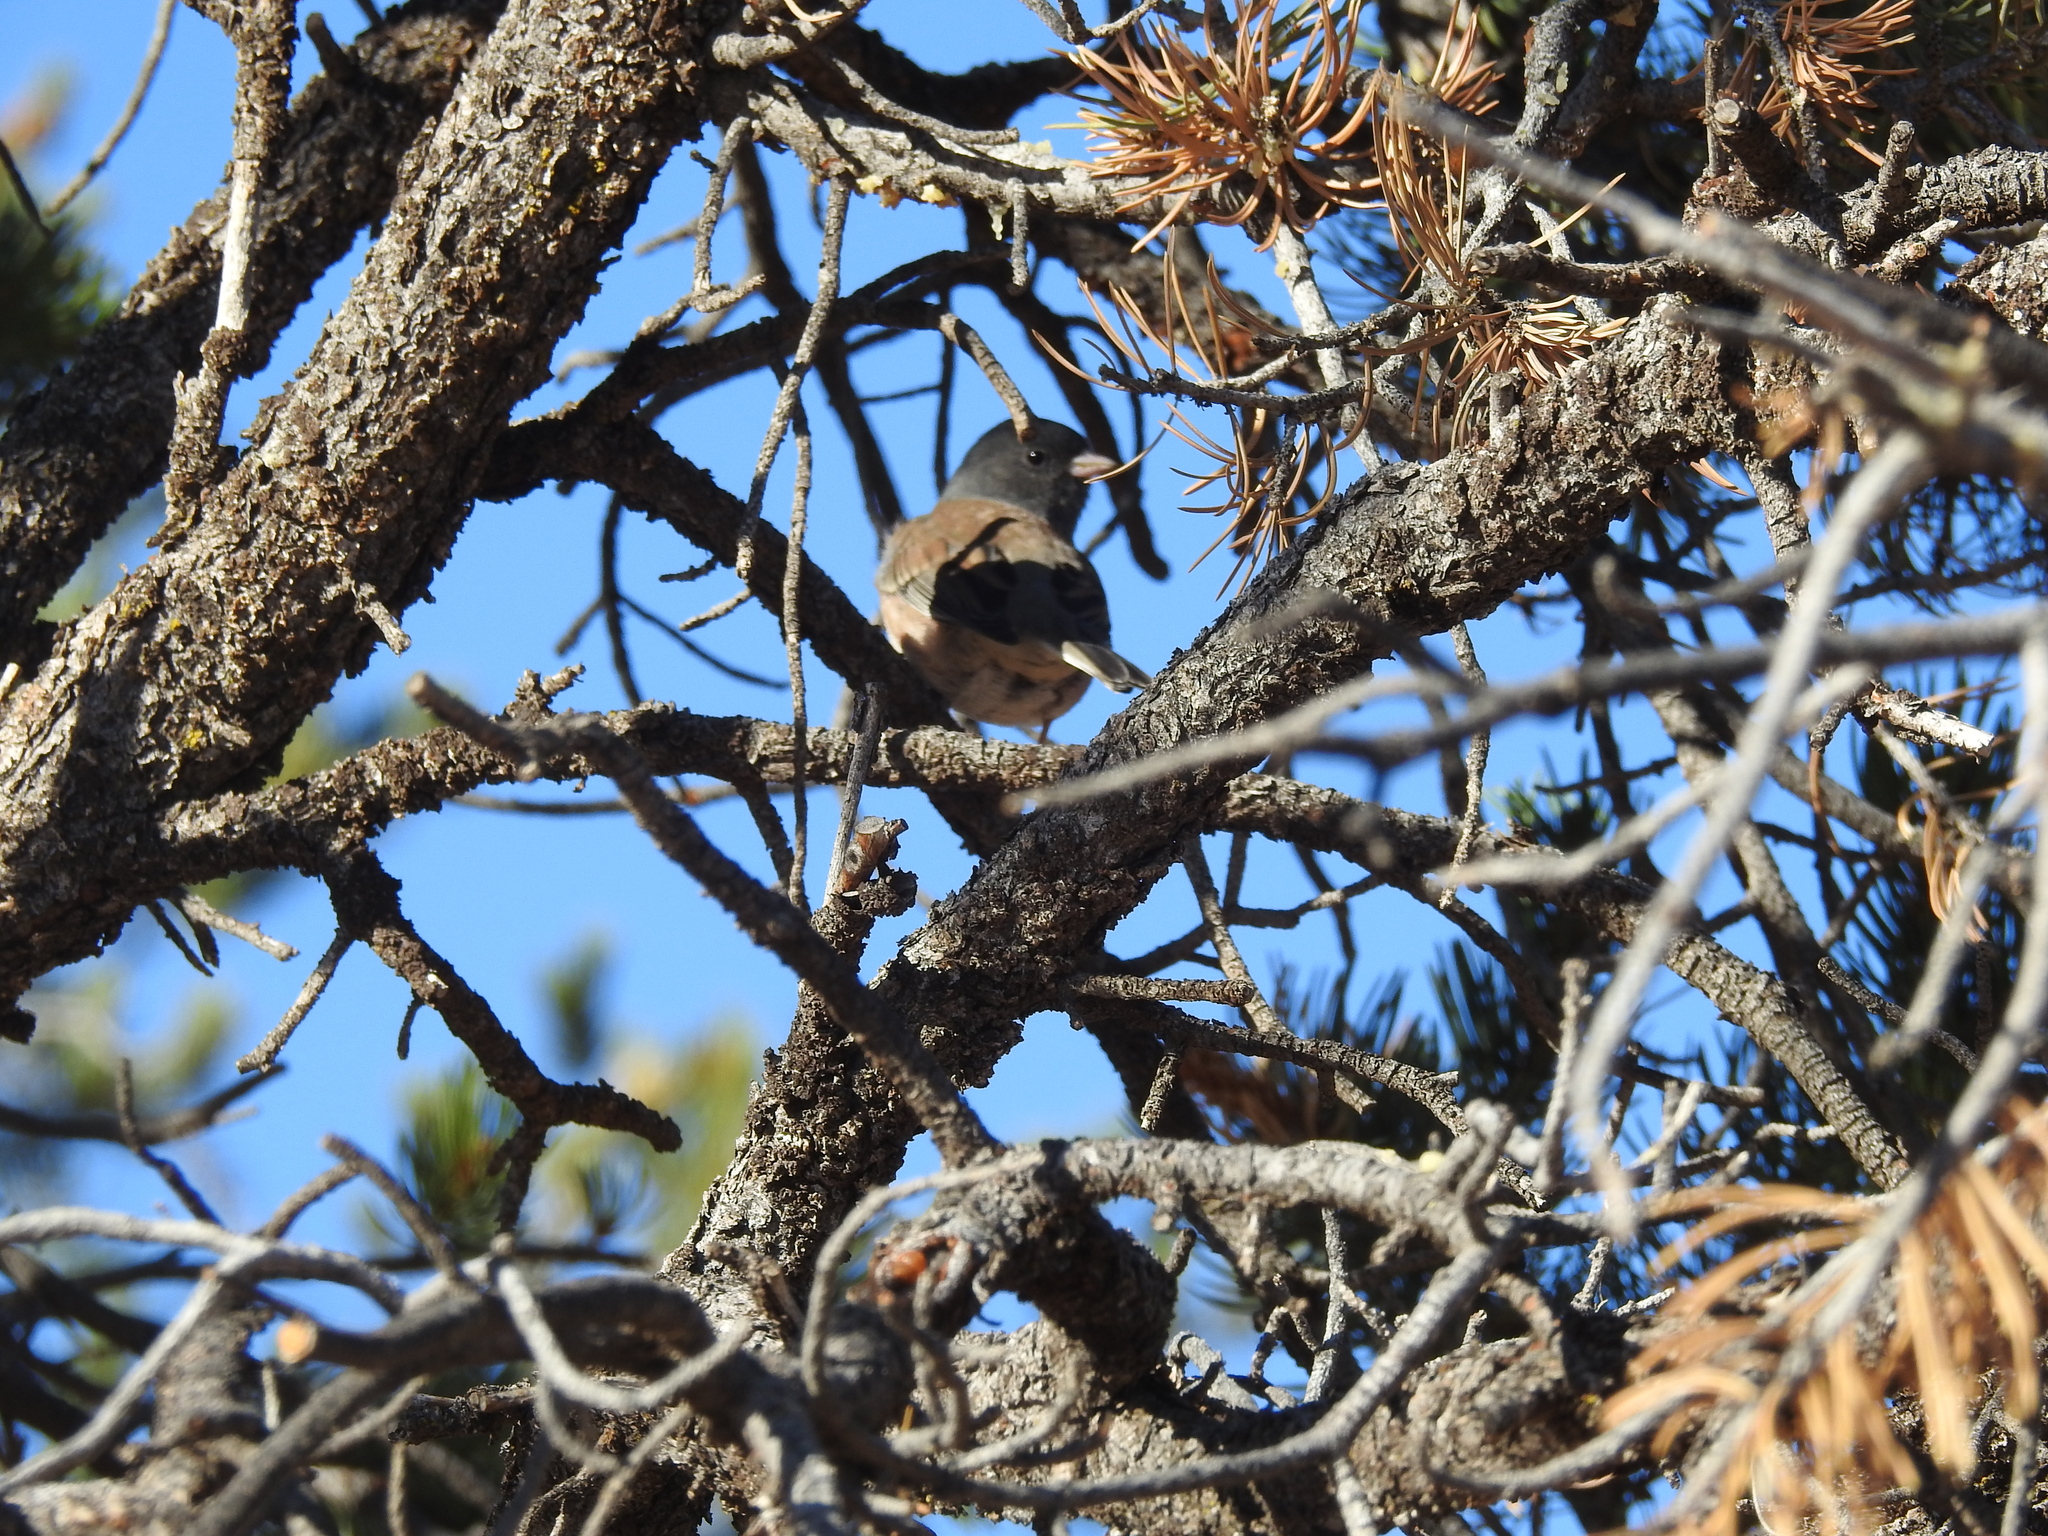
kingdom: Animalia
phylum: Chordata
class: Aves
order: Passeriformes
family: Passerellidae
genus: Junco
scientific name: Junco hyemalis
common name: Dark-eyed junco
